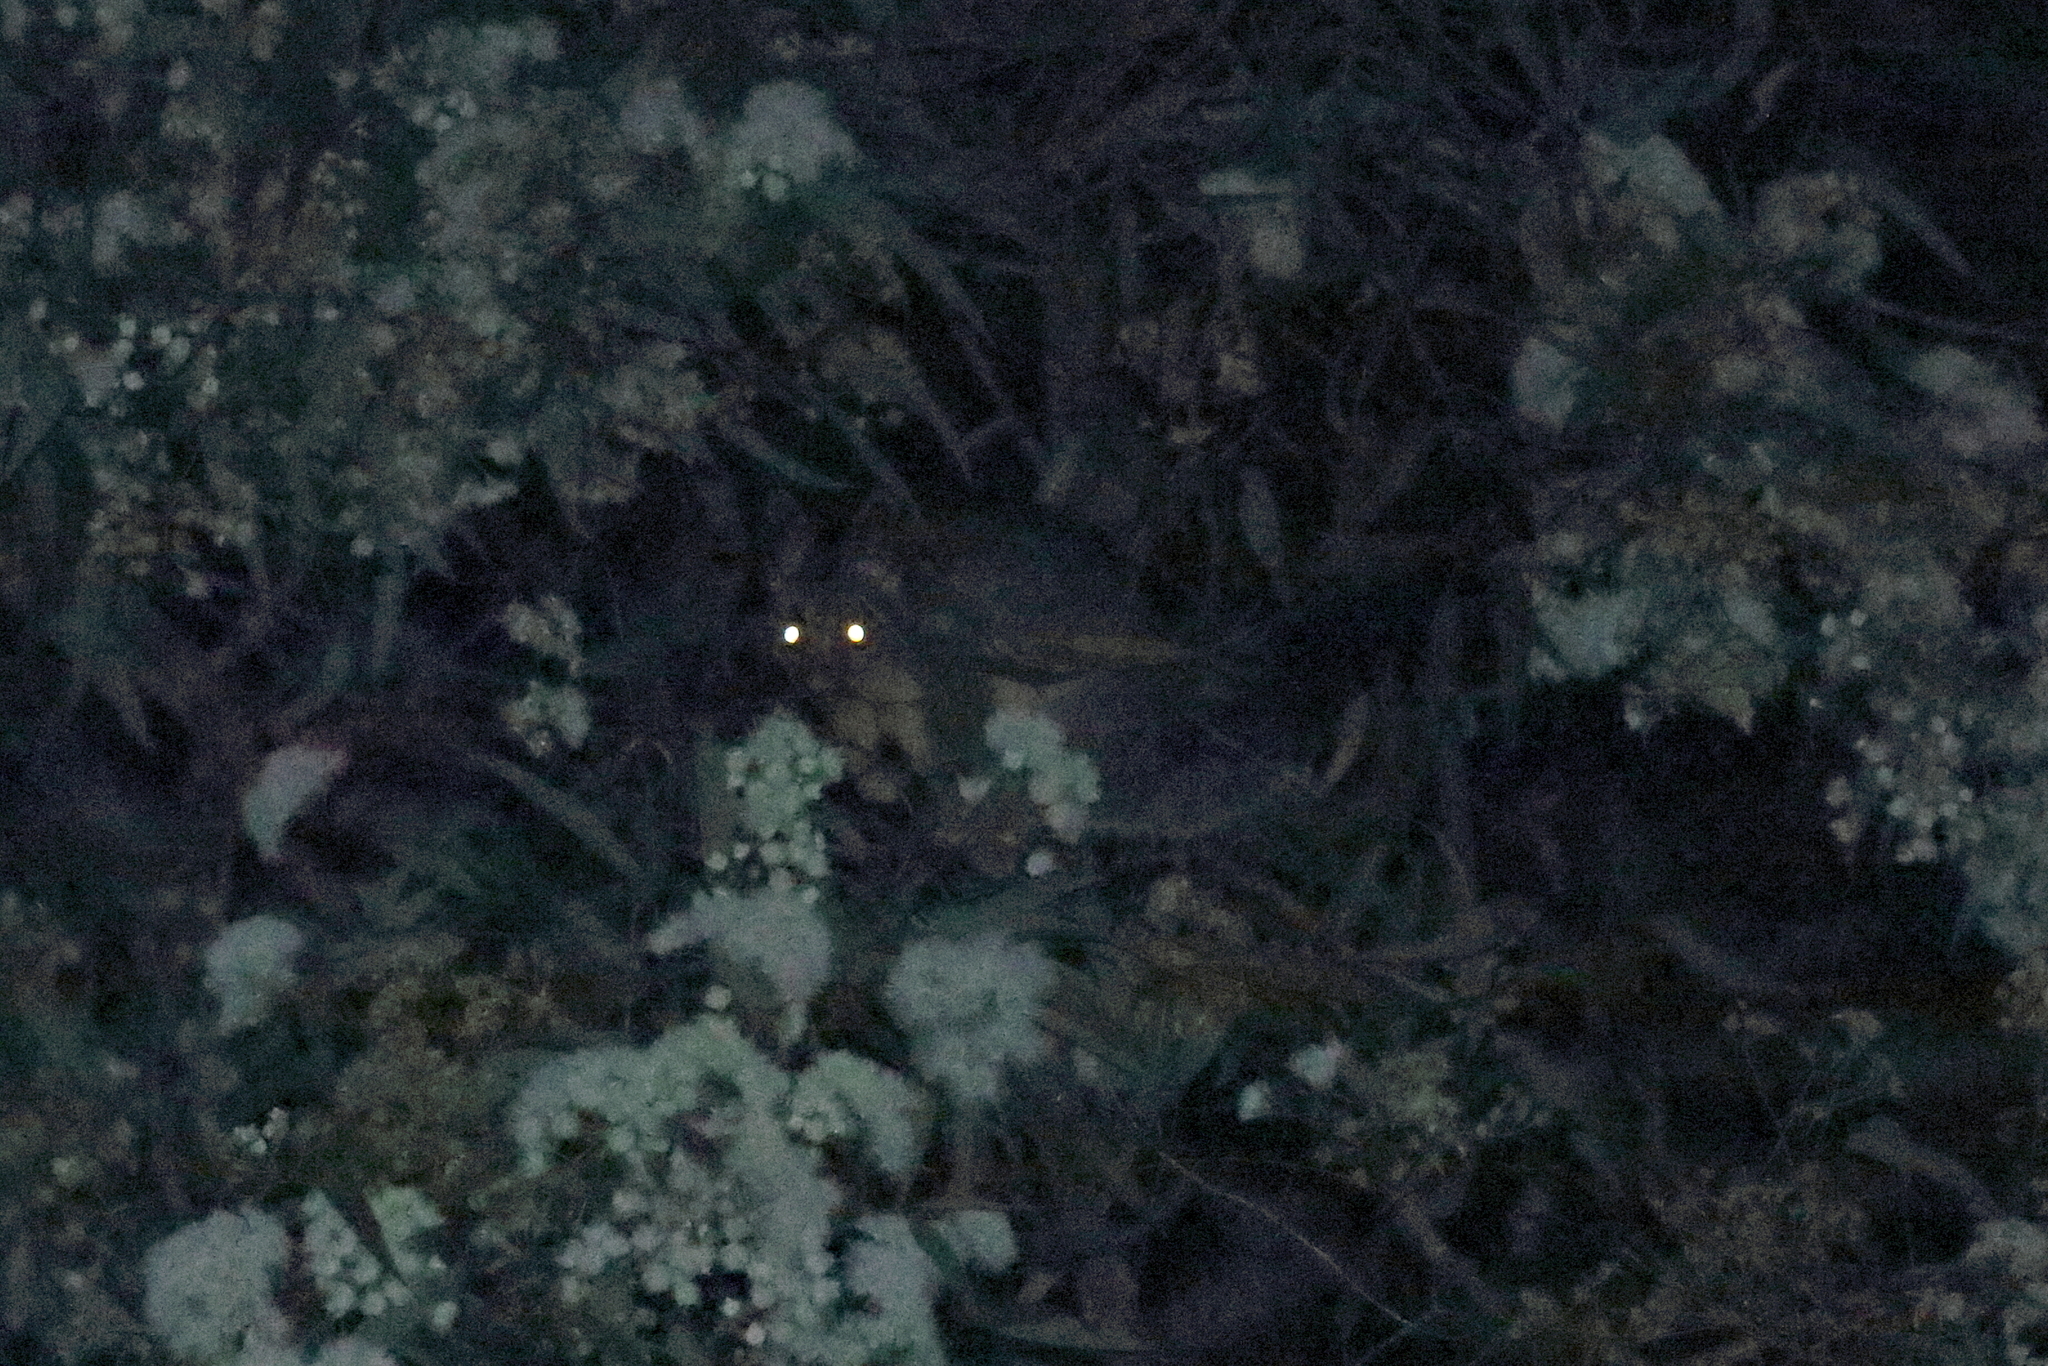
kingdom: Animalia
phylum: Chordata
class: Mammalia
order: Diprotodontia
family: Phalangeridae
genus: Trichosurus
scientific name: Trichosurus vulpecula
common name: Common brushtail
